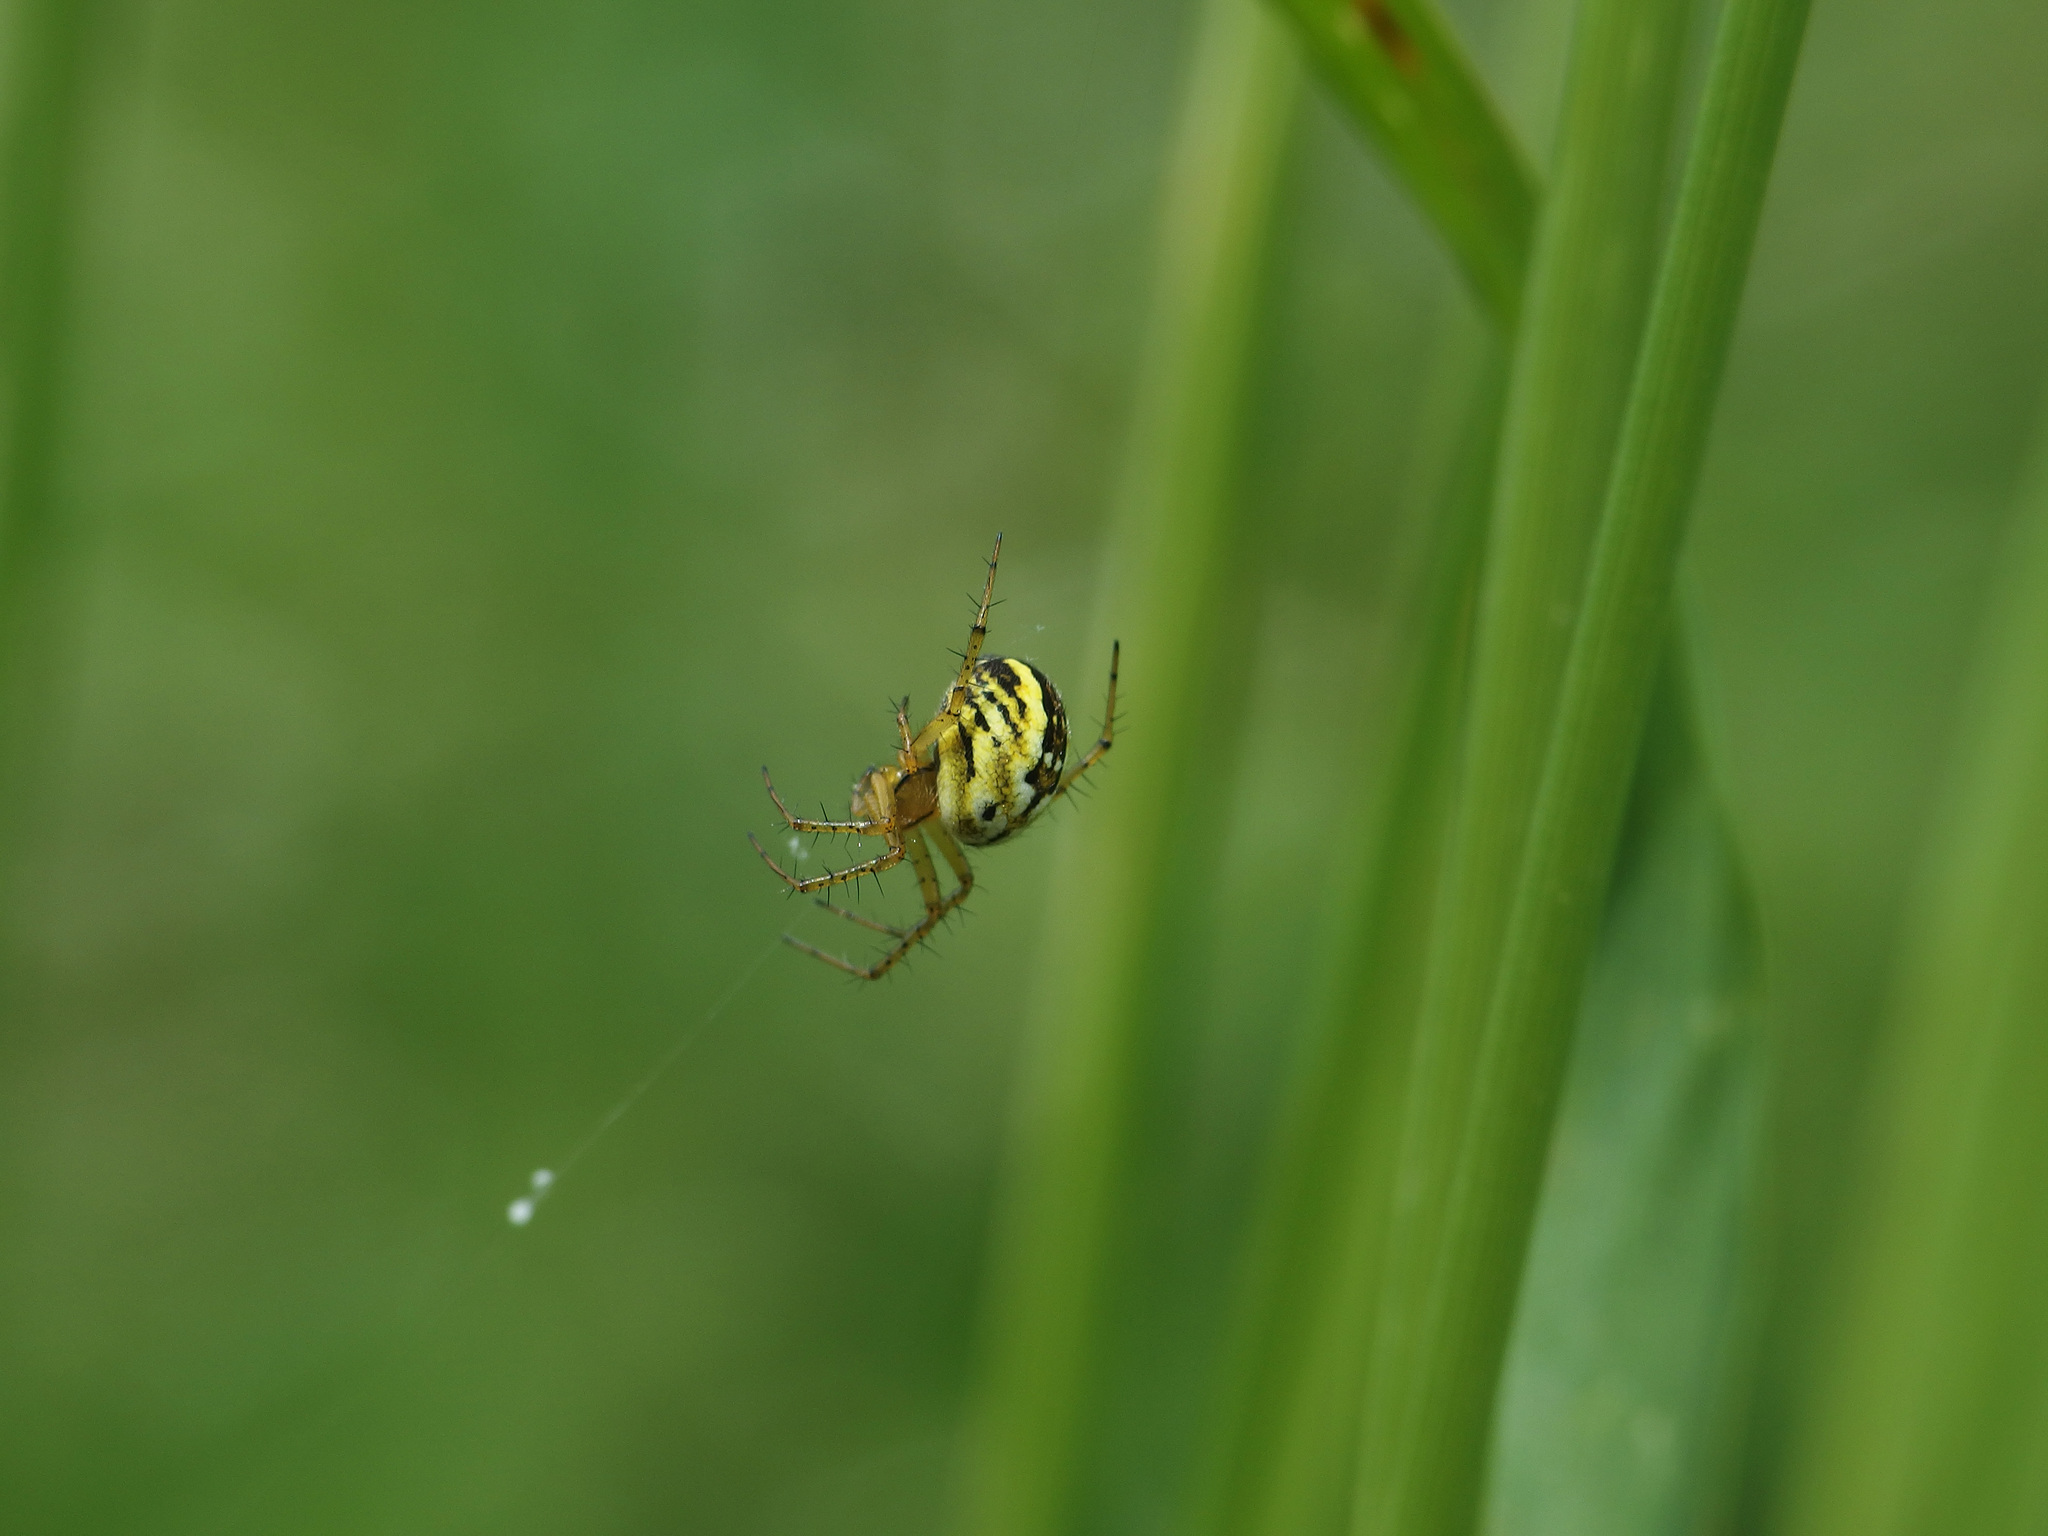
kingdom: Animalia
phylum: Arthropoda
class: Arachnida
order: Araneae
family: Araneidae
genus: Mangora
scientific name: Mangora acalypha
